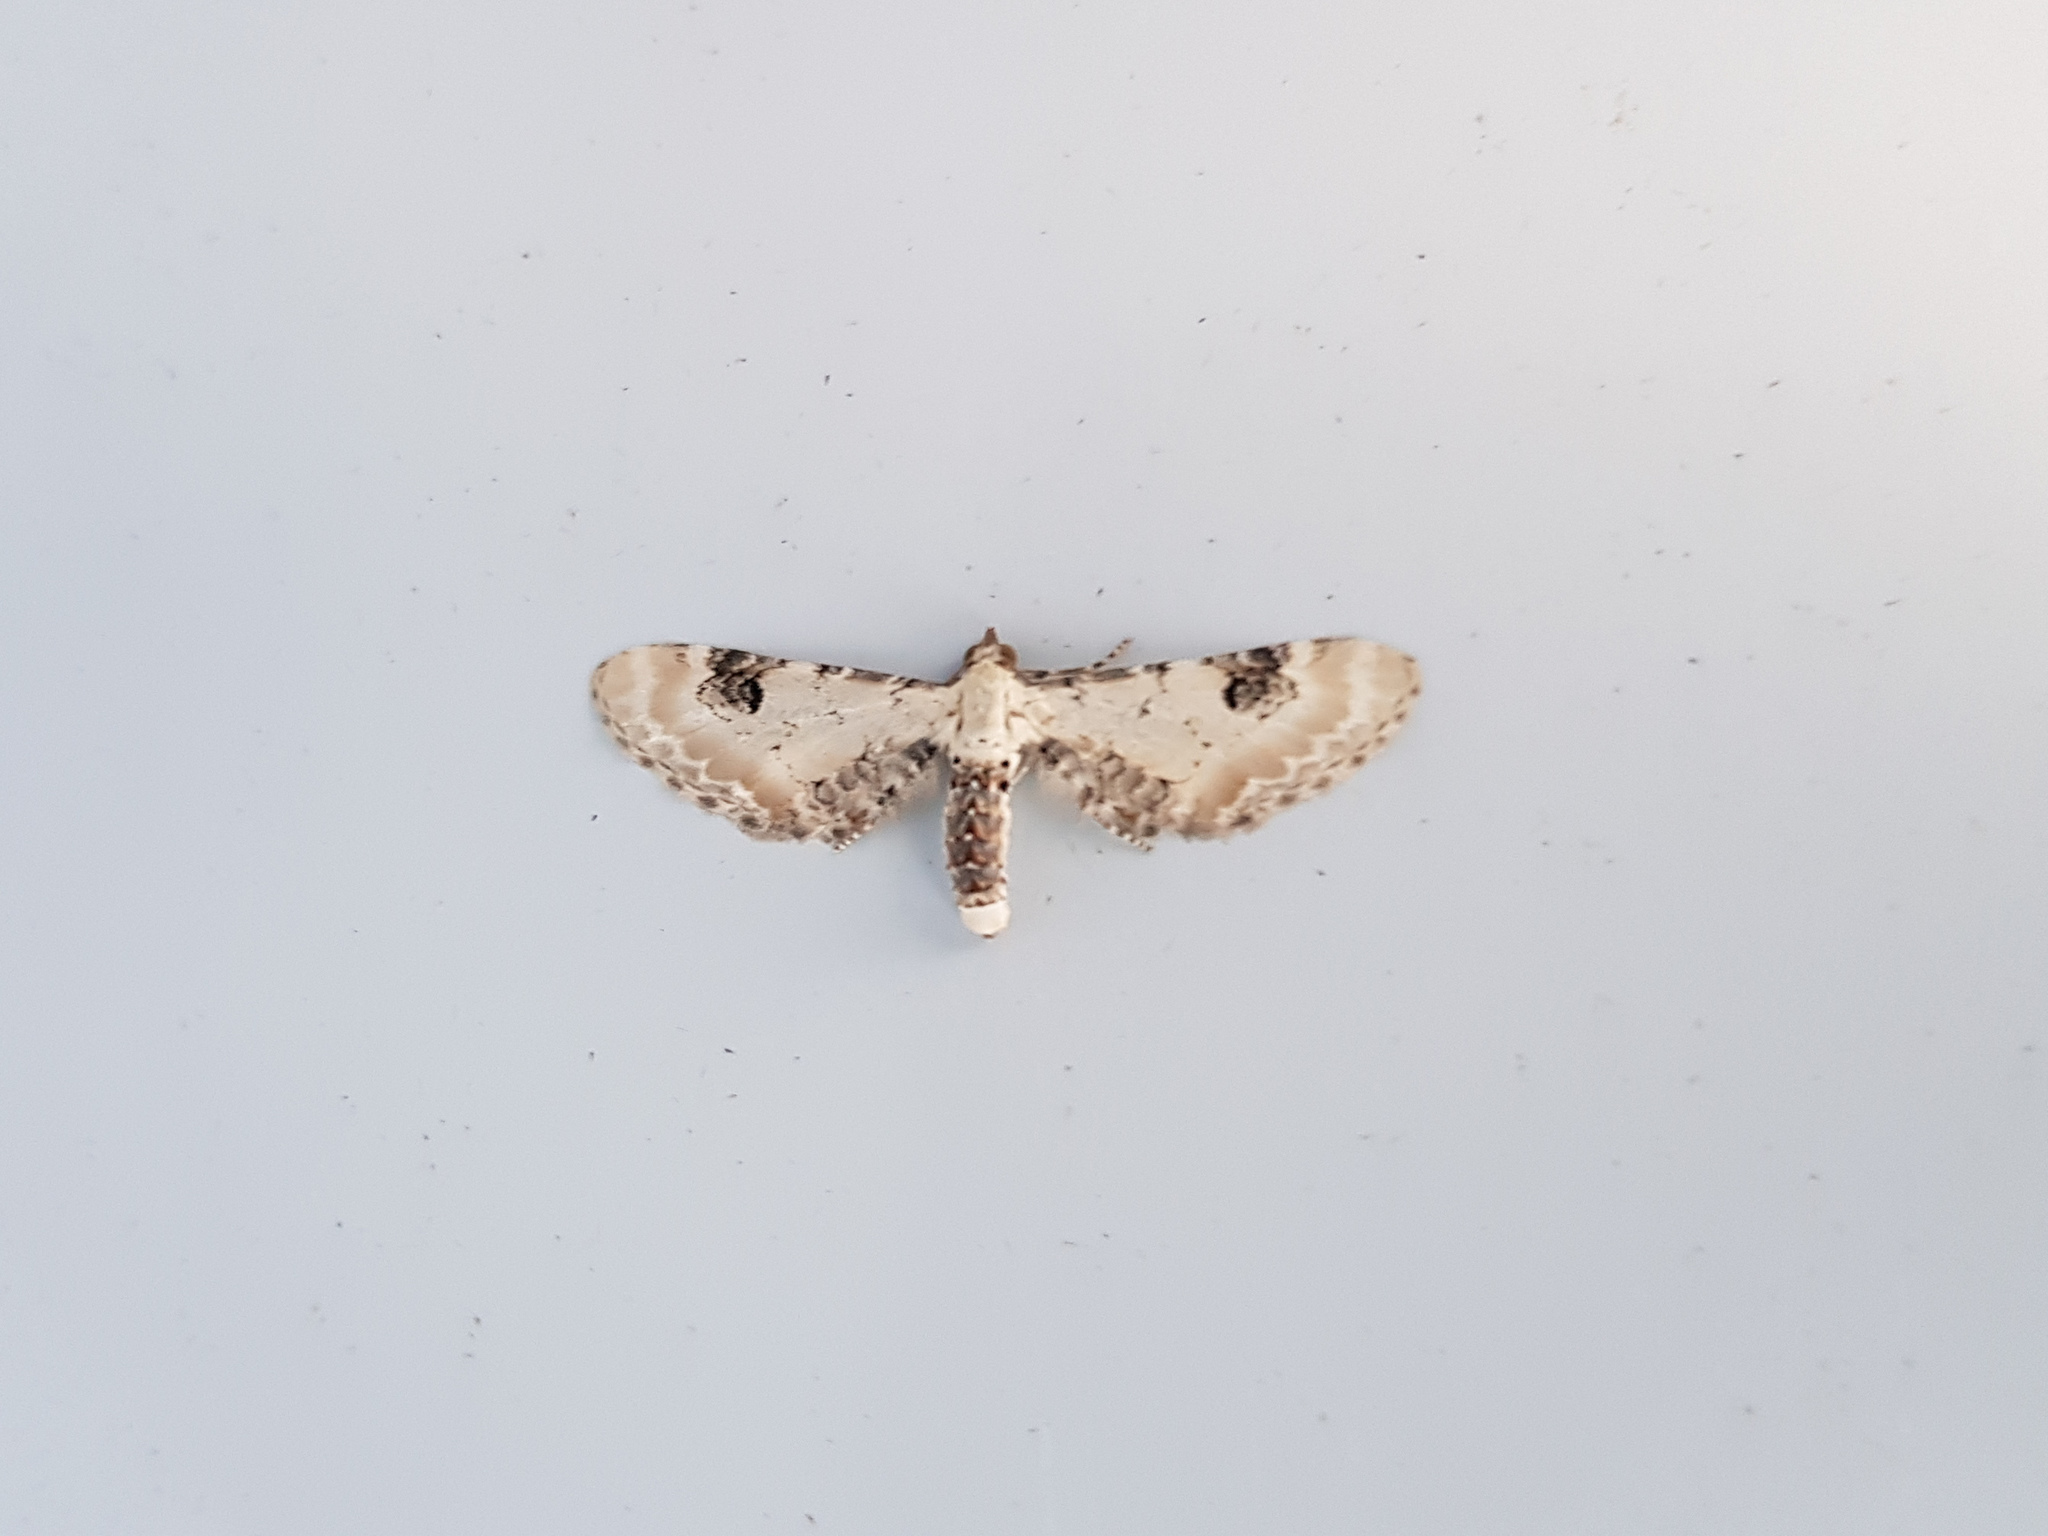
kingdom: Animalia
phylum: Arthropoda
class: Insecta
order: Lepidoptera
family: Geometridae
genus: Eupithecia
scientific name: Eupithecia centaureata
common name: Lime-speck pug
